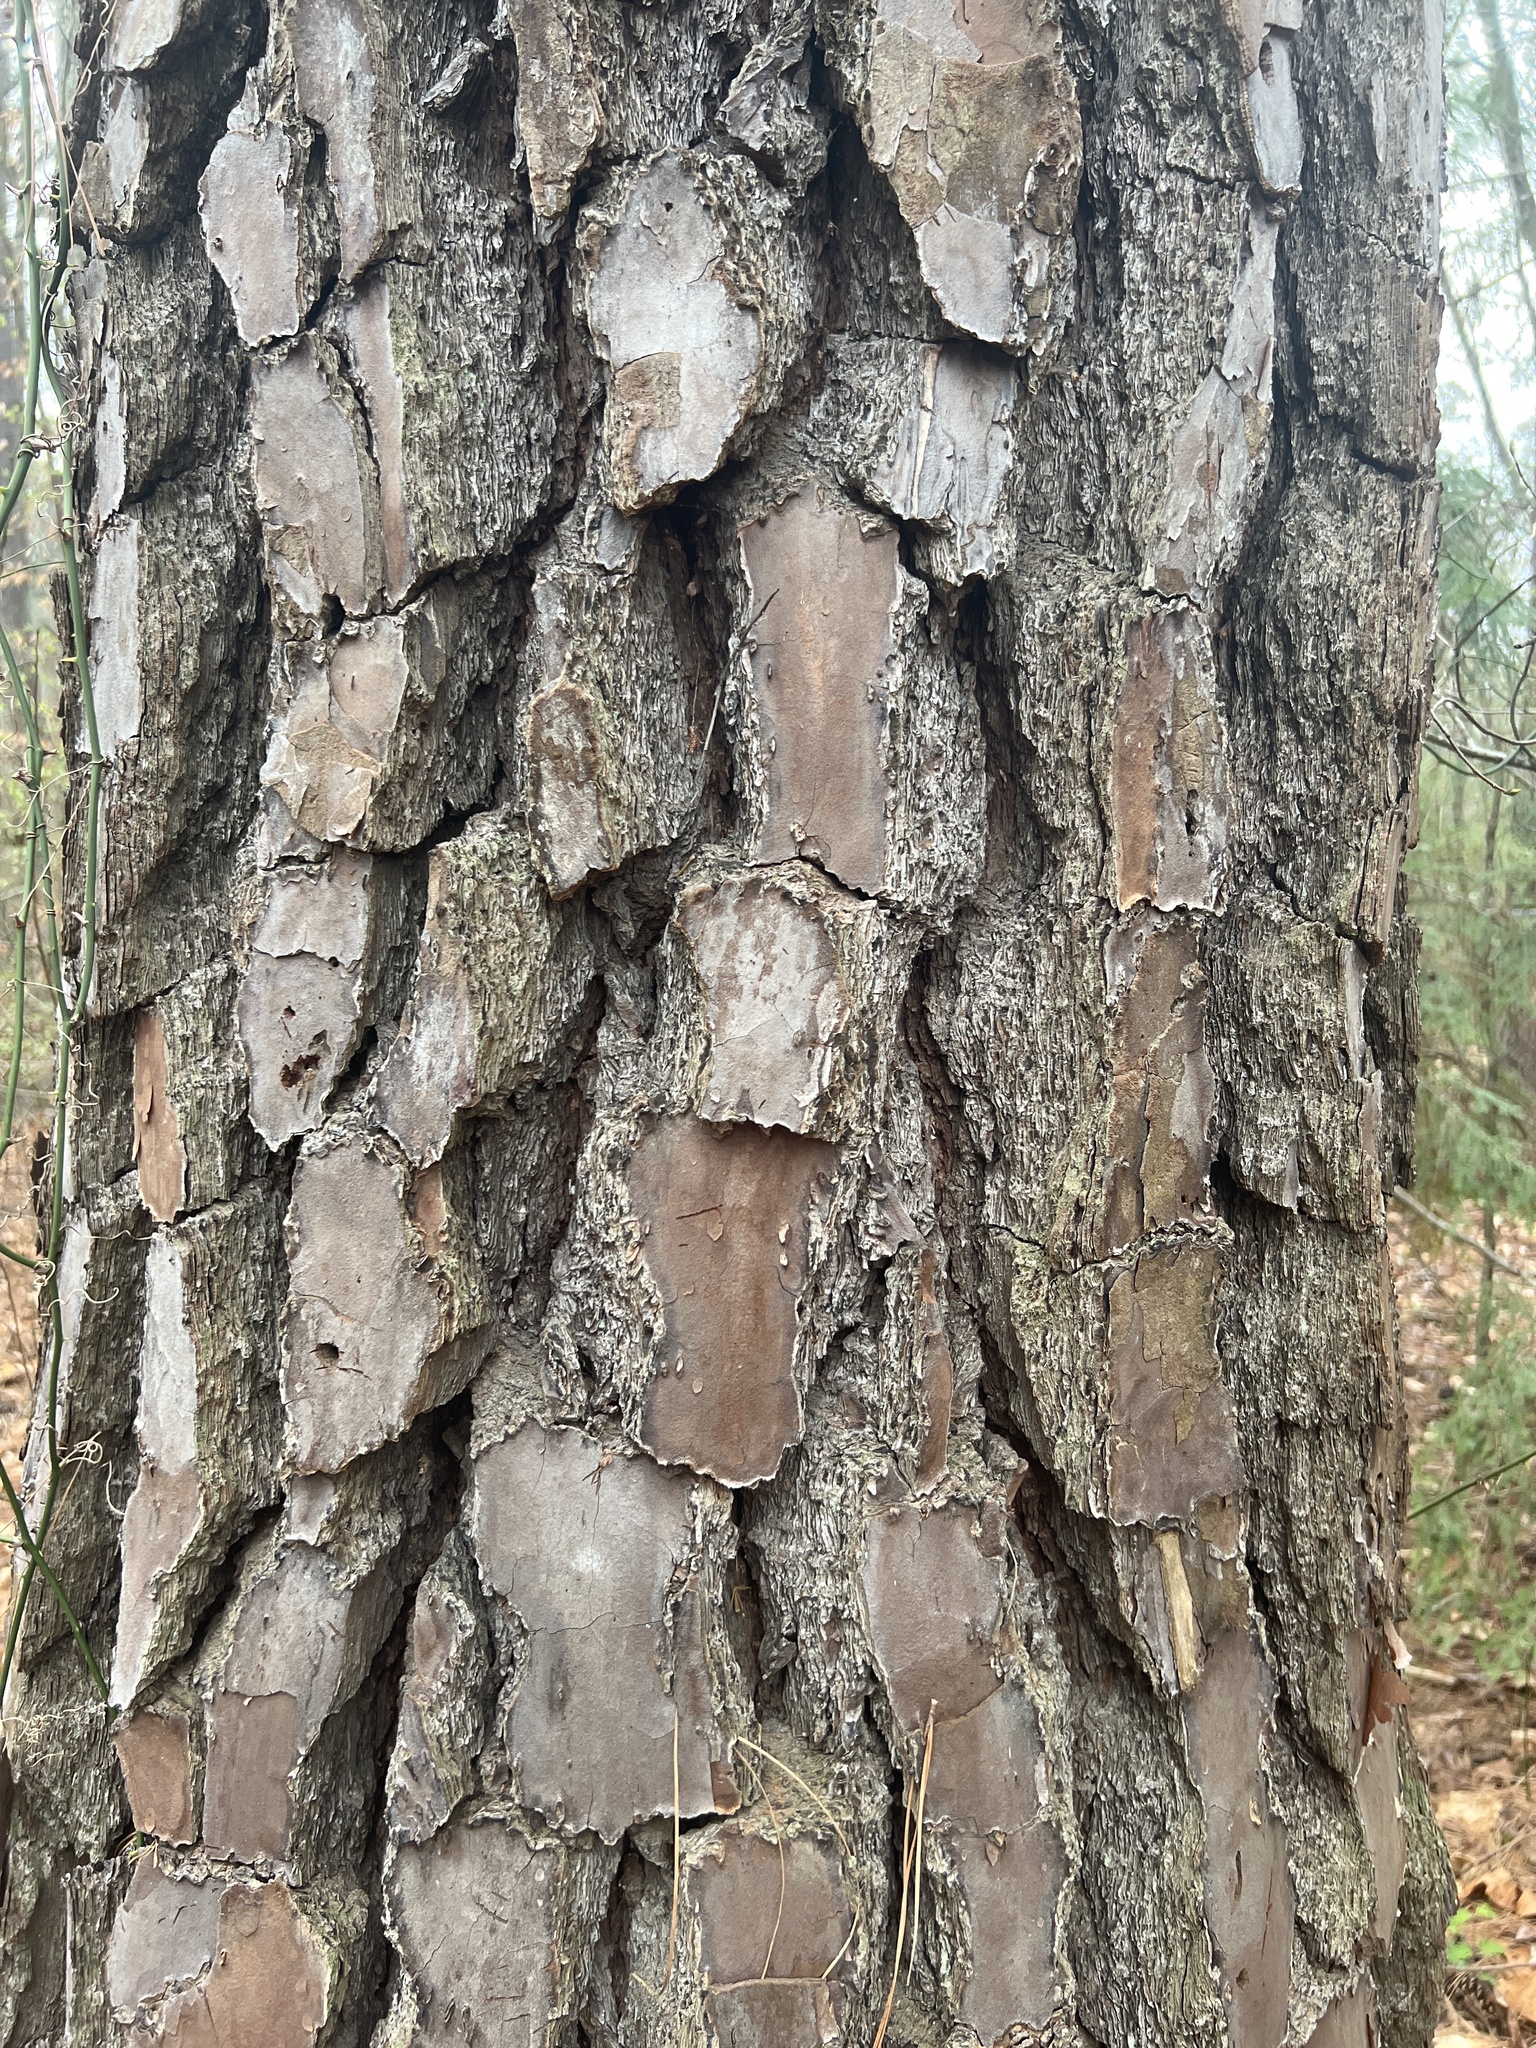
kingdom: Plantae
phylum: Tracheophyta
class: Pinopsida
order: Pinales
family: Pinaceae
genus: Pinus
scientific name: Pinus taeda
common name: Loblolly pine
